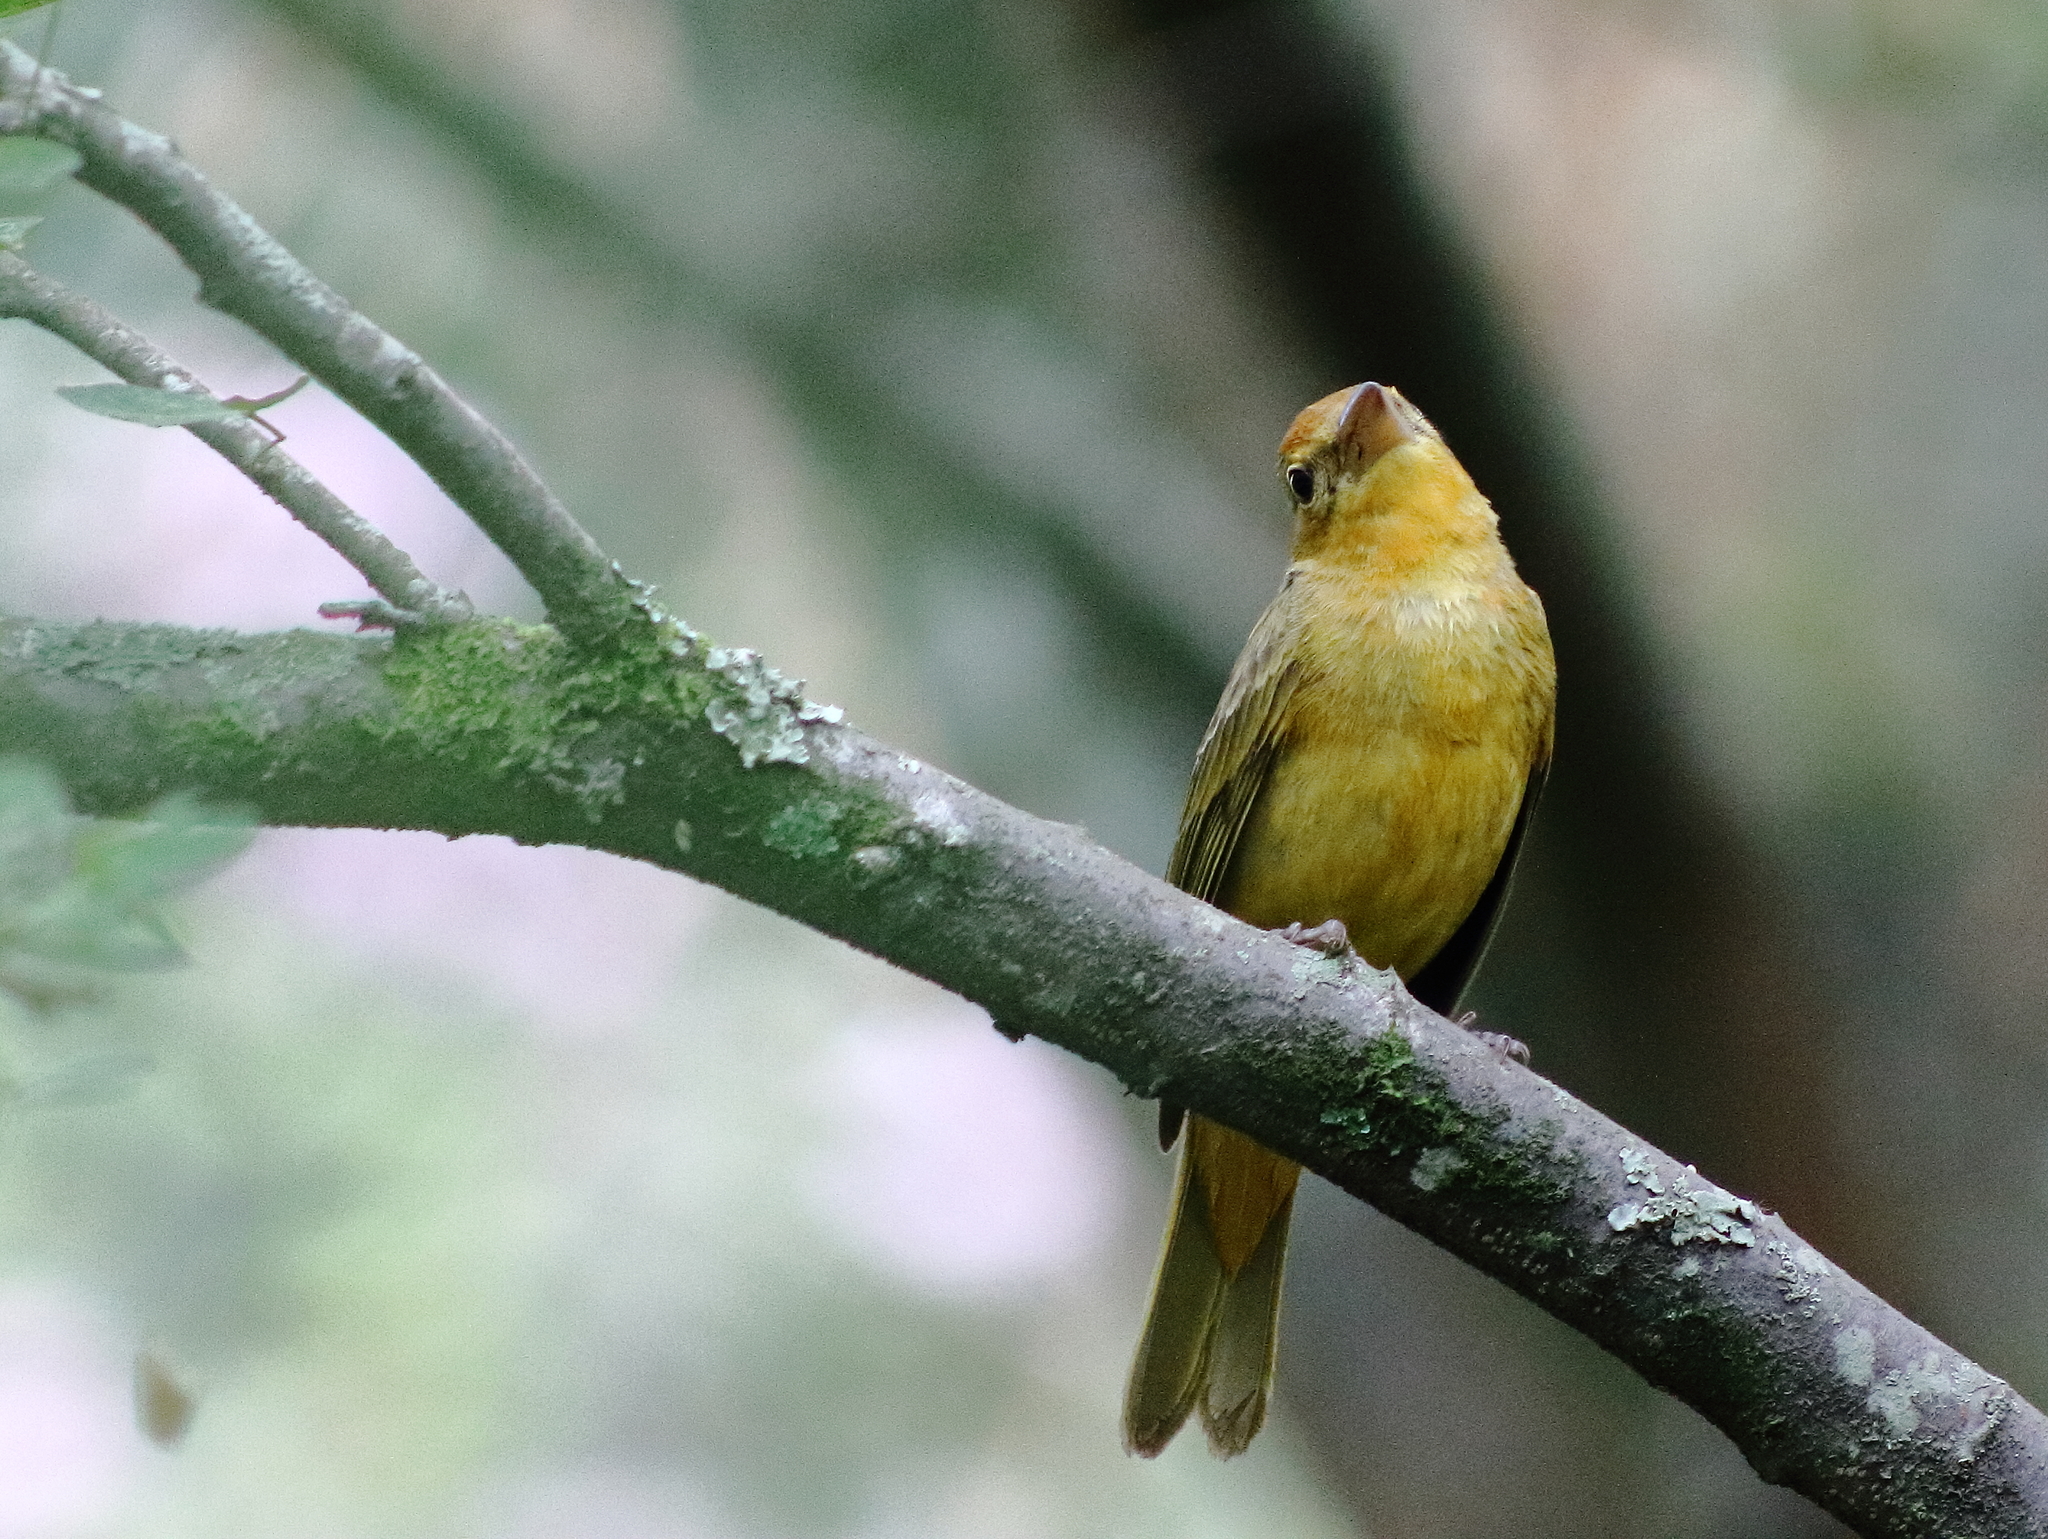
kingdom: Animalia
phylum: Chordata
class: Aves
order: Passeriformes
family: Cardinalidae
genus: Piranga
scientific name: Piranga rubra
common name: Summer tanager
